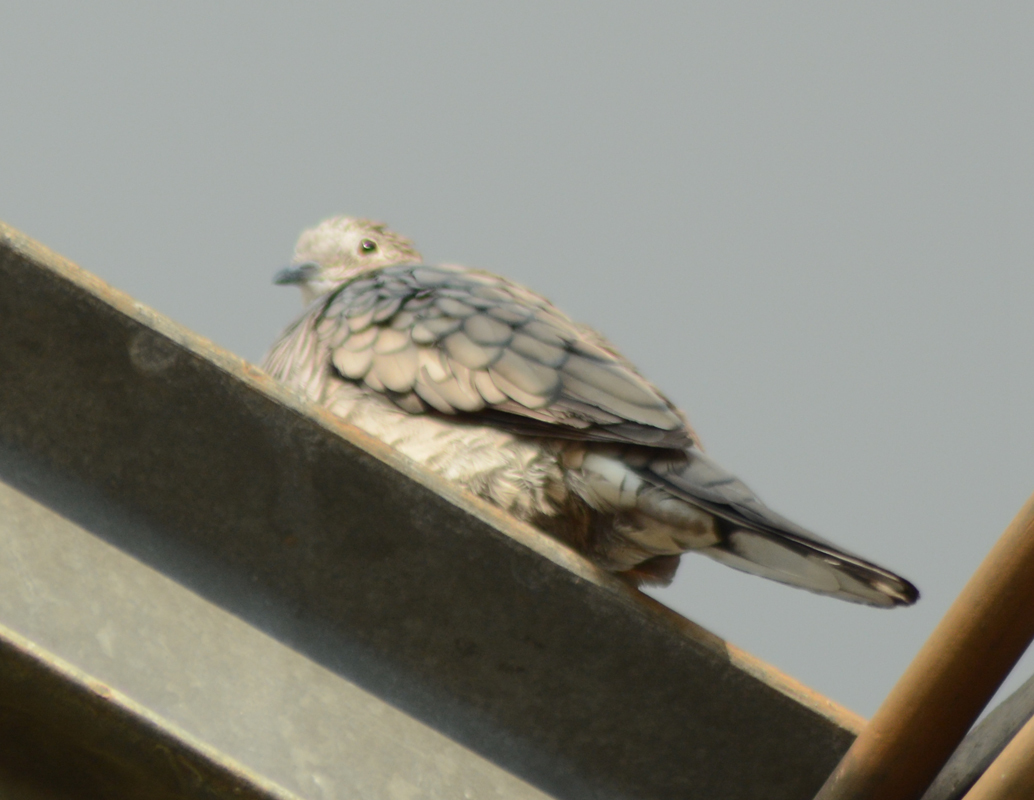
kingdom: Animalia
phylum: Chordata
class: Aves
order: Columbiformes
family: Columbidae
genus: Columbina
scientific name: Columbina inca
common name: Inca dove
